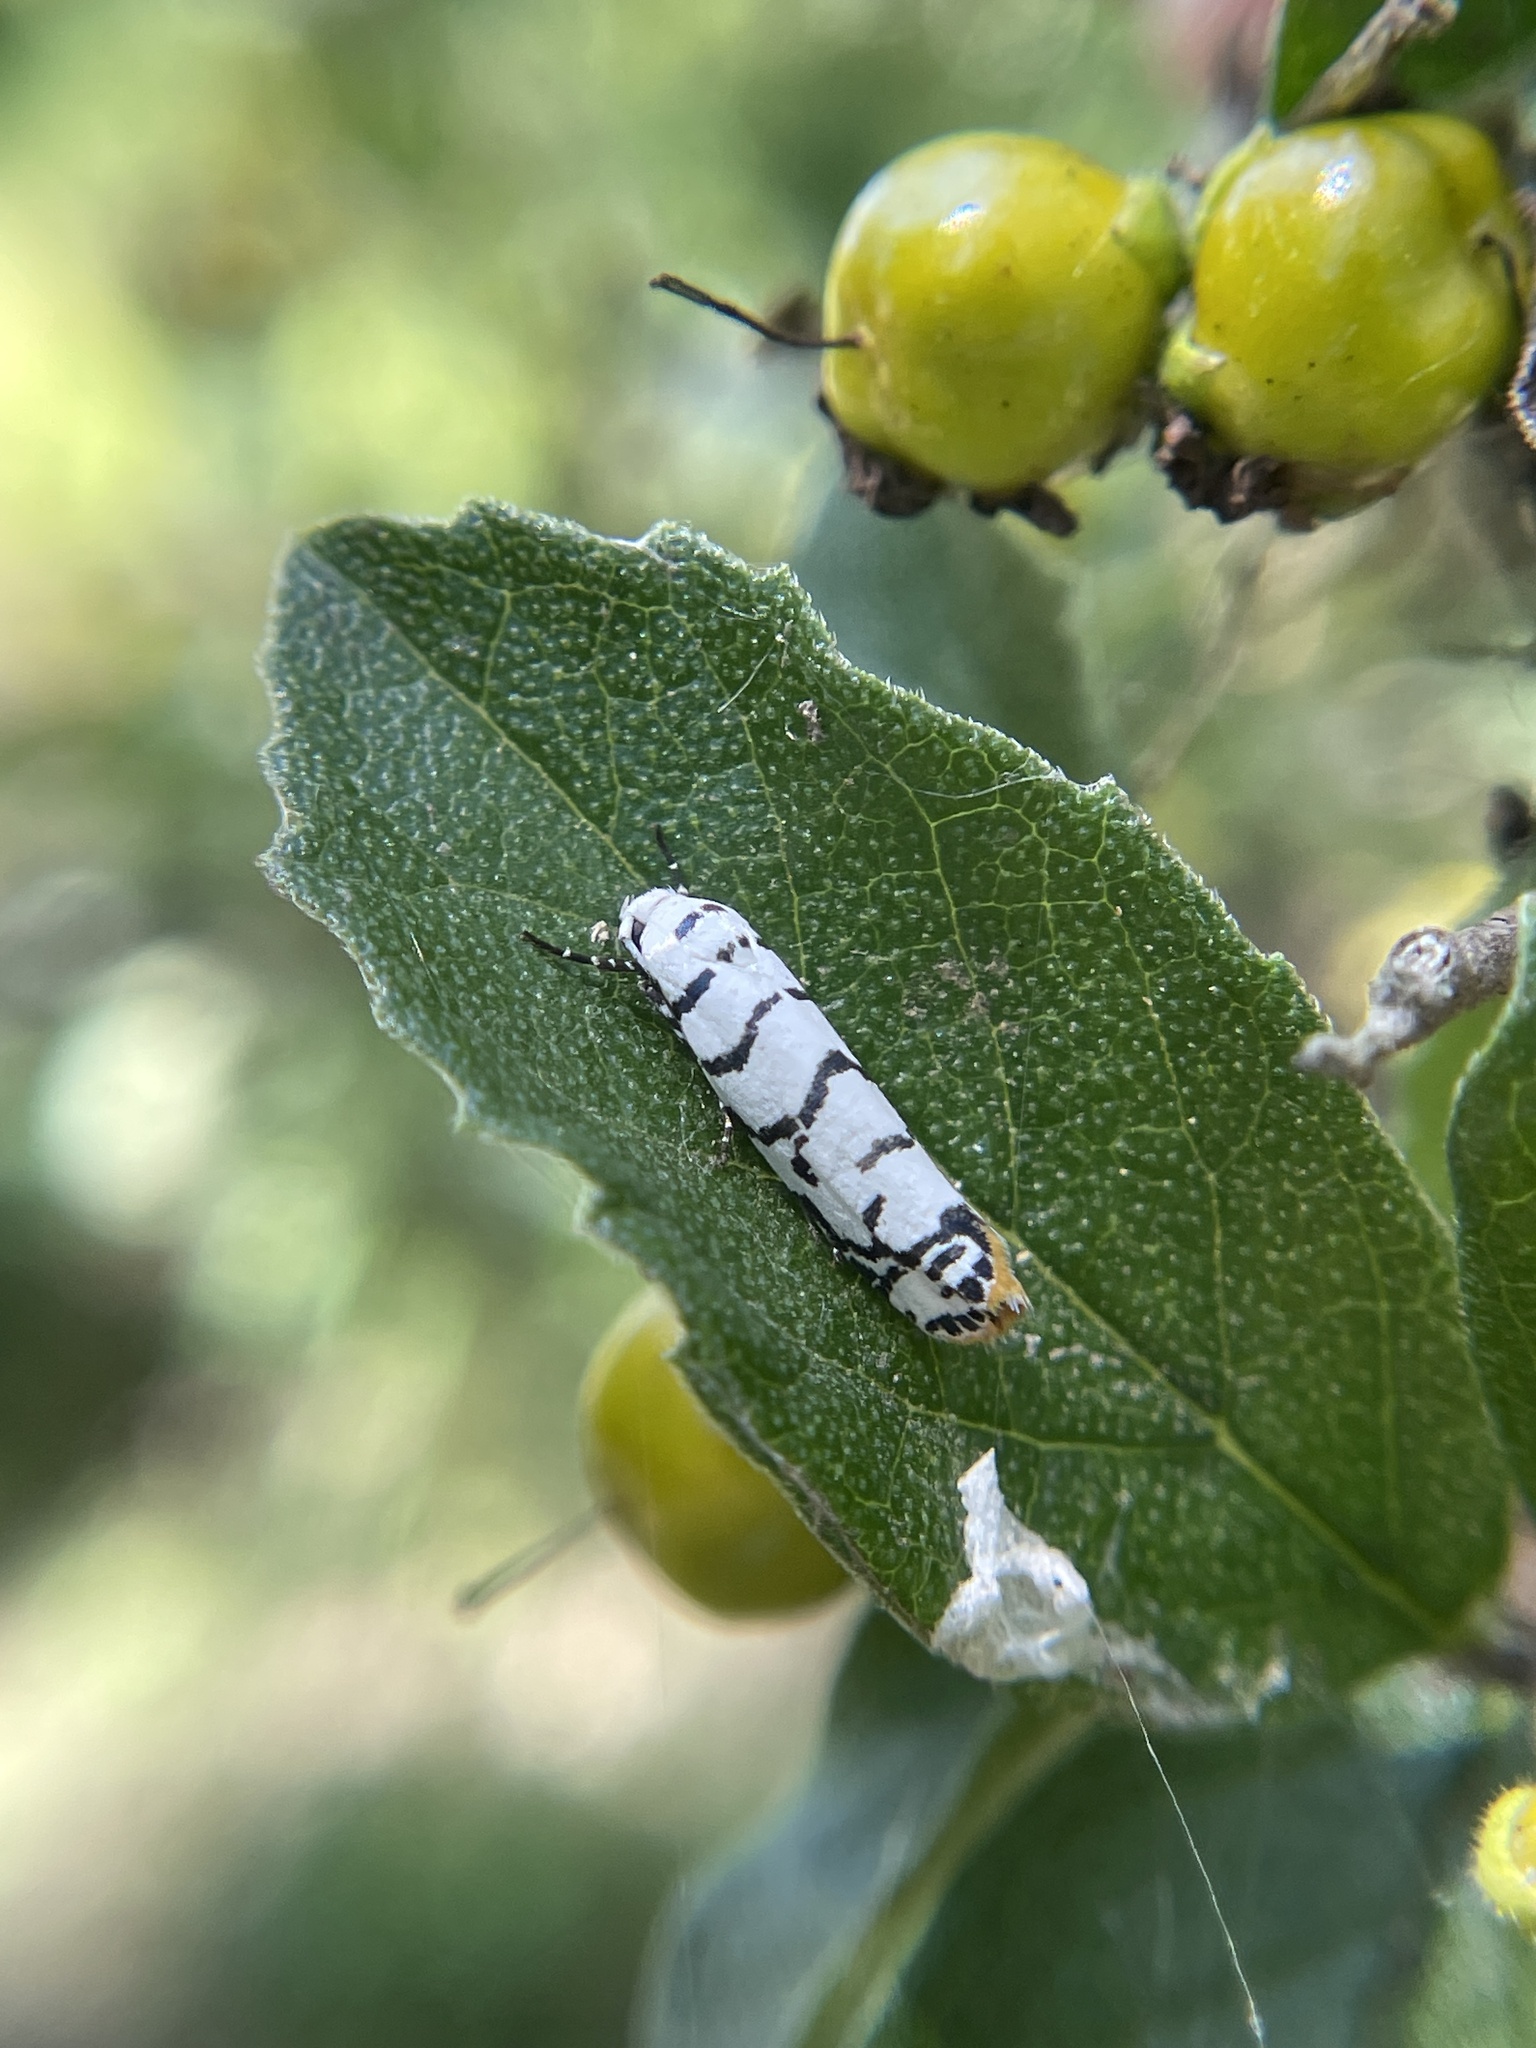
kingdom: Animalia
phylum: Arthropoda
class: Insecta
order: Lepidoptera
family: Ethmiidae
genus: Ethmia
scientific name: Ethmia delliella
